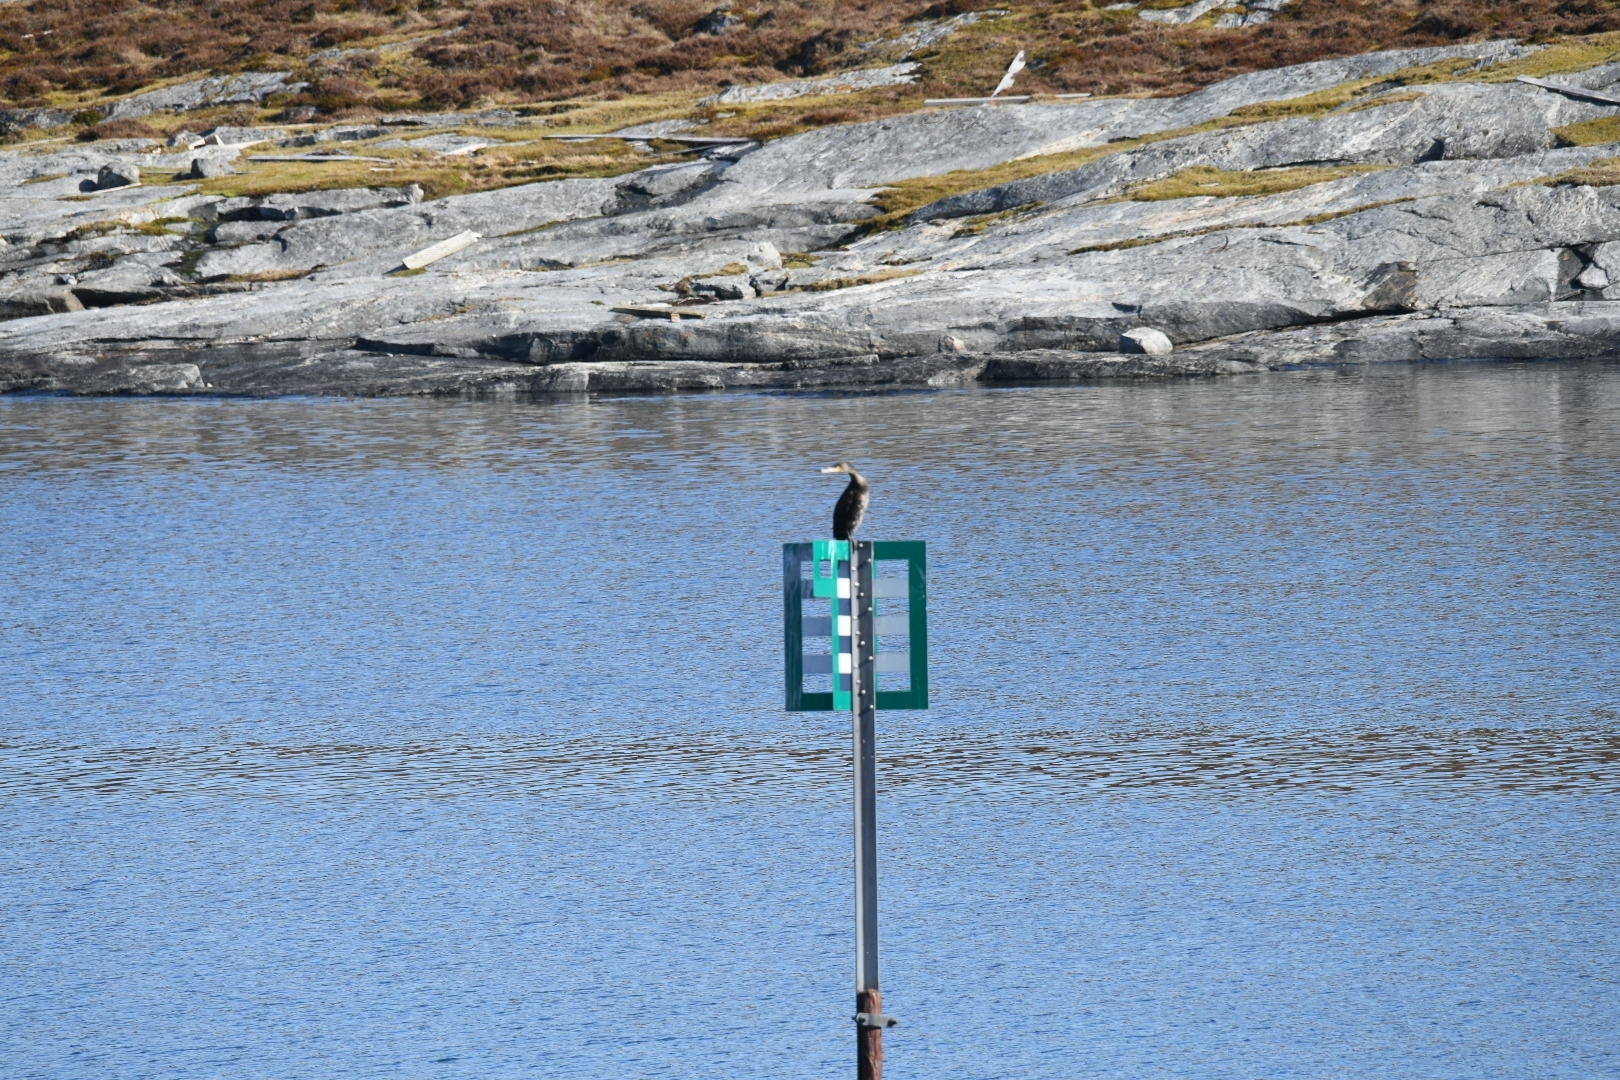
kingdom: Animalia
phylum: Chordata
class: Aves
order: Suliformes
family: Phalacrocoracidae
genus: Phalacrocorax
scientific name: Phalacrocorax carbo
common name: Great cormorant
